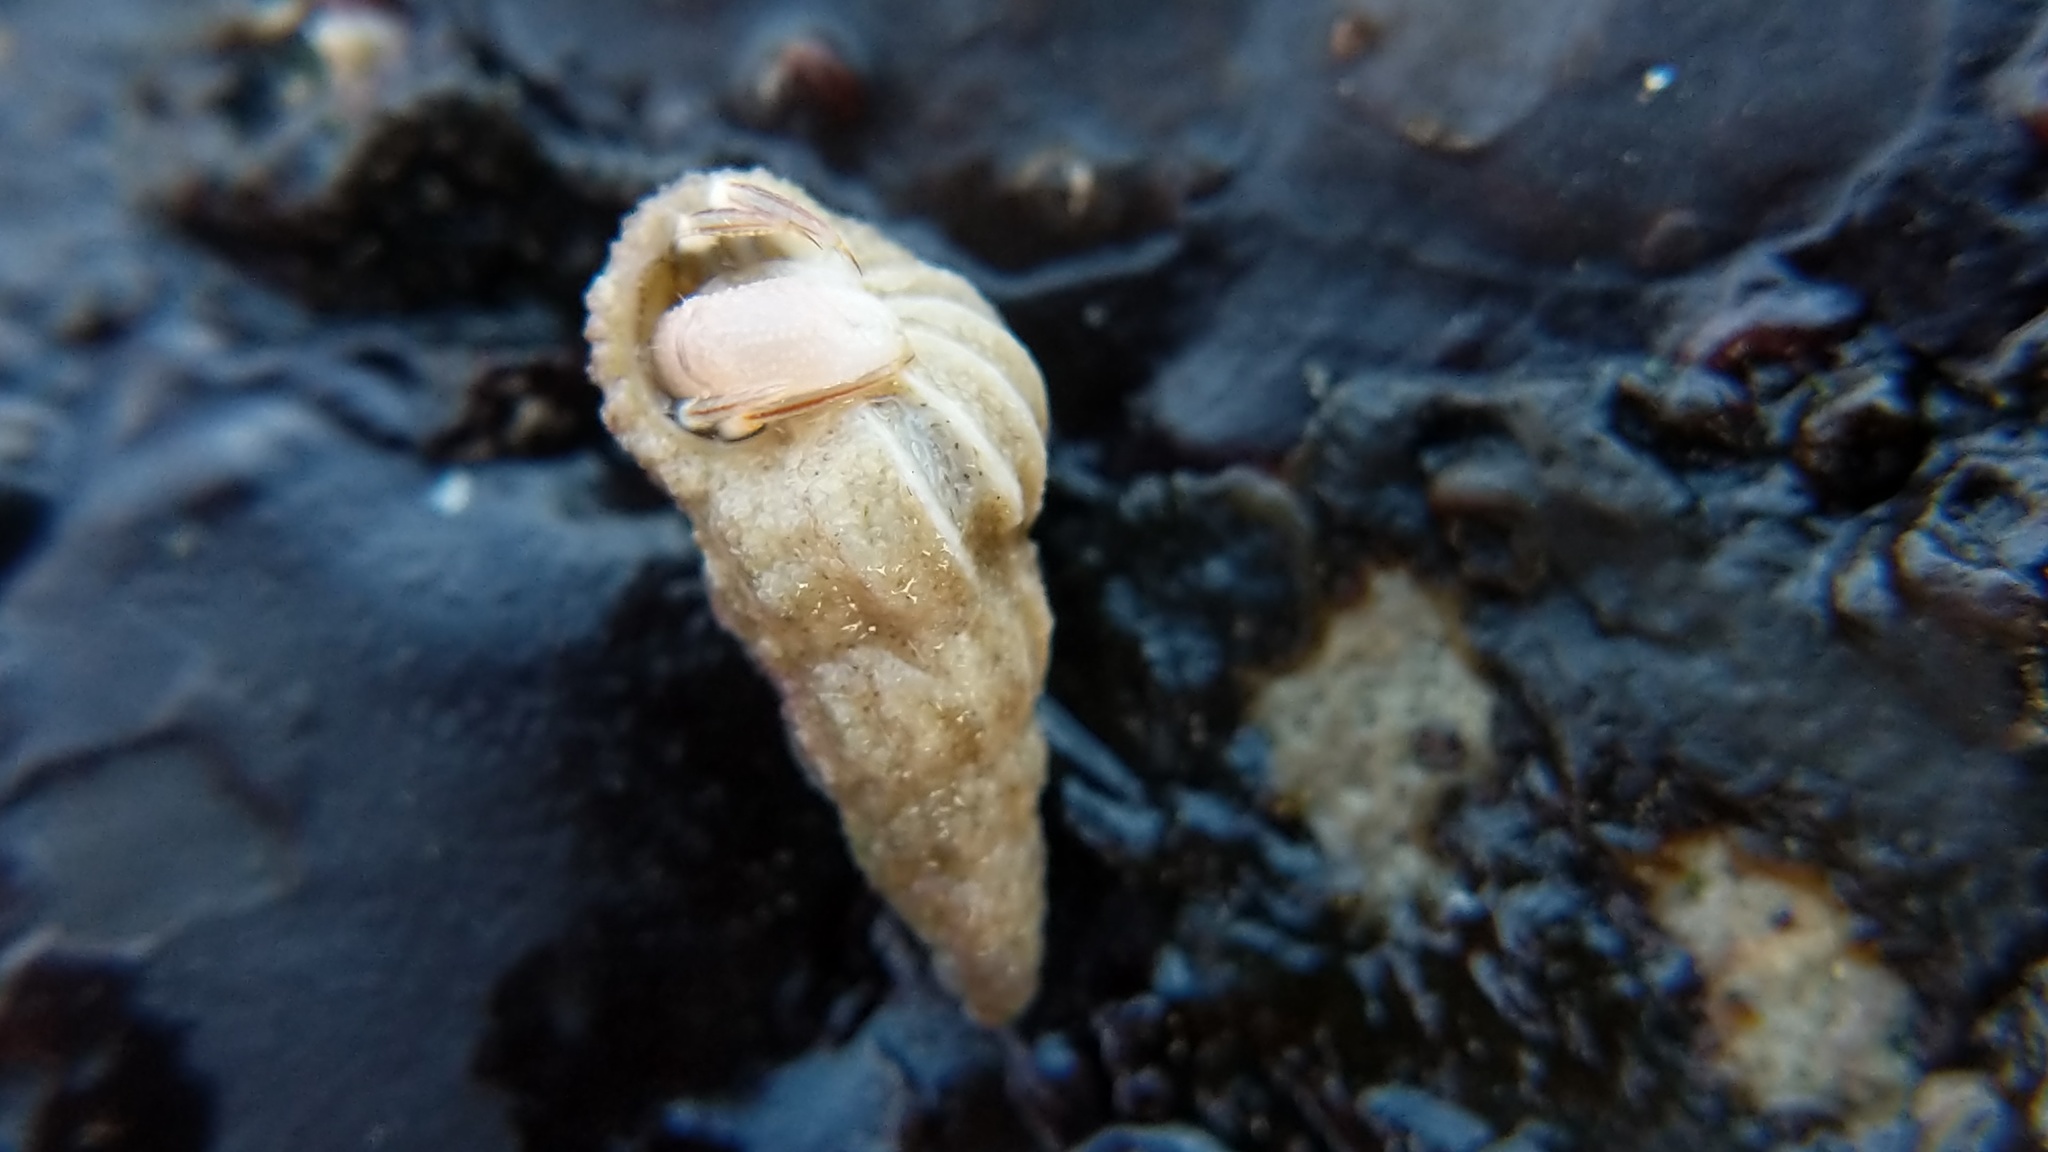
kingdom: Animalia
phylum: Mollusca
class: Gastropoda
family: Epitoniidae
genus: Epitonium
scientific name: Epitonium tinctum
